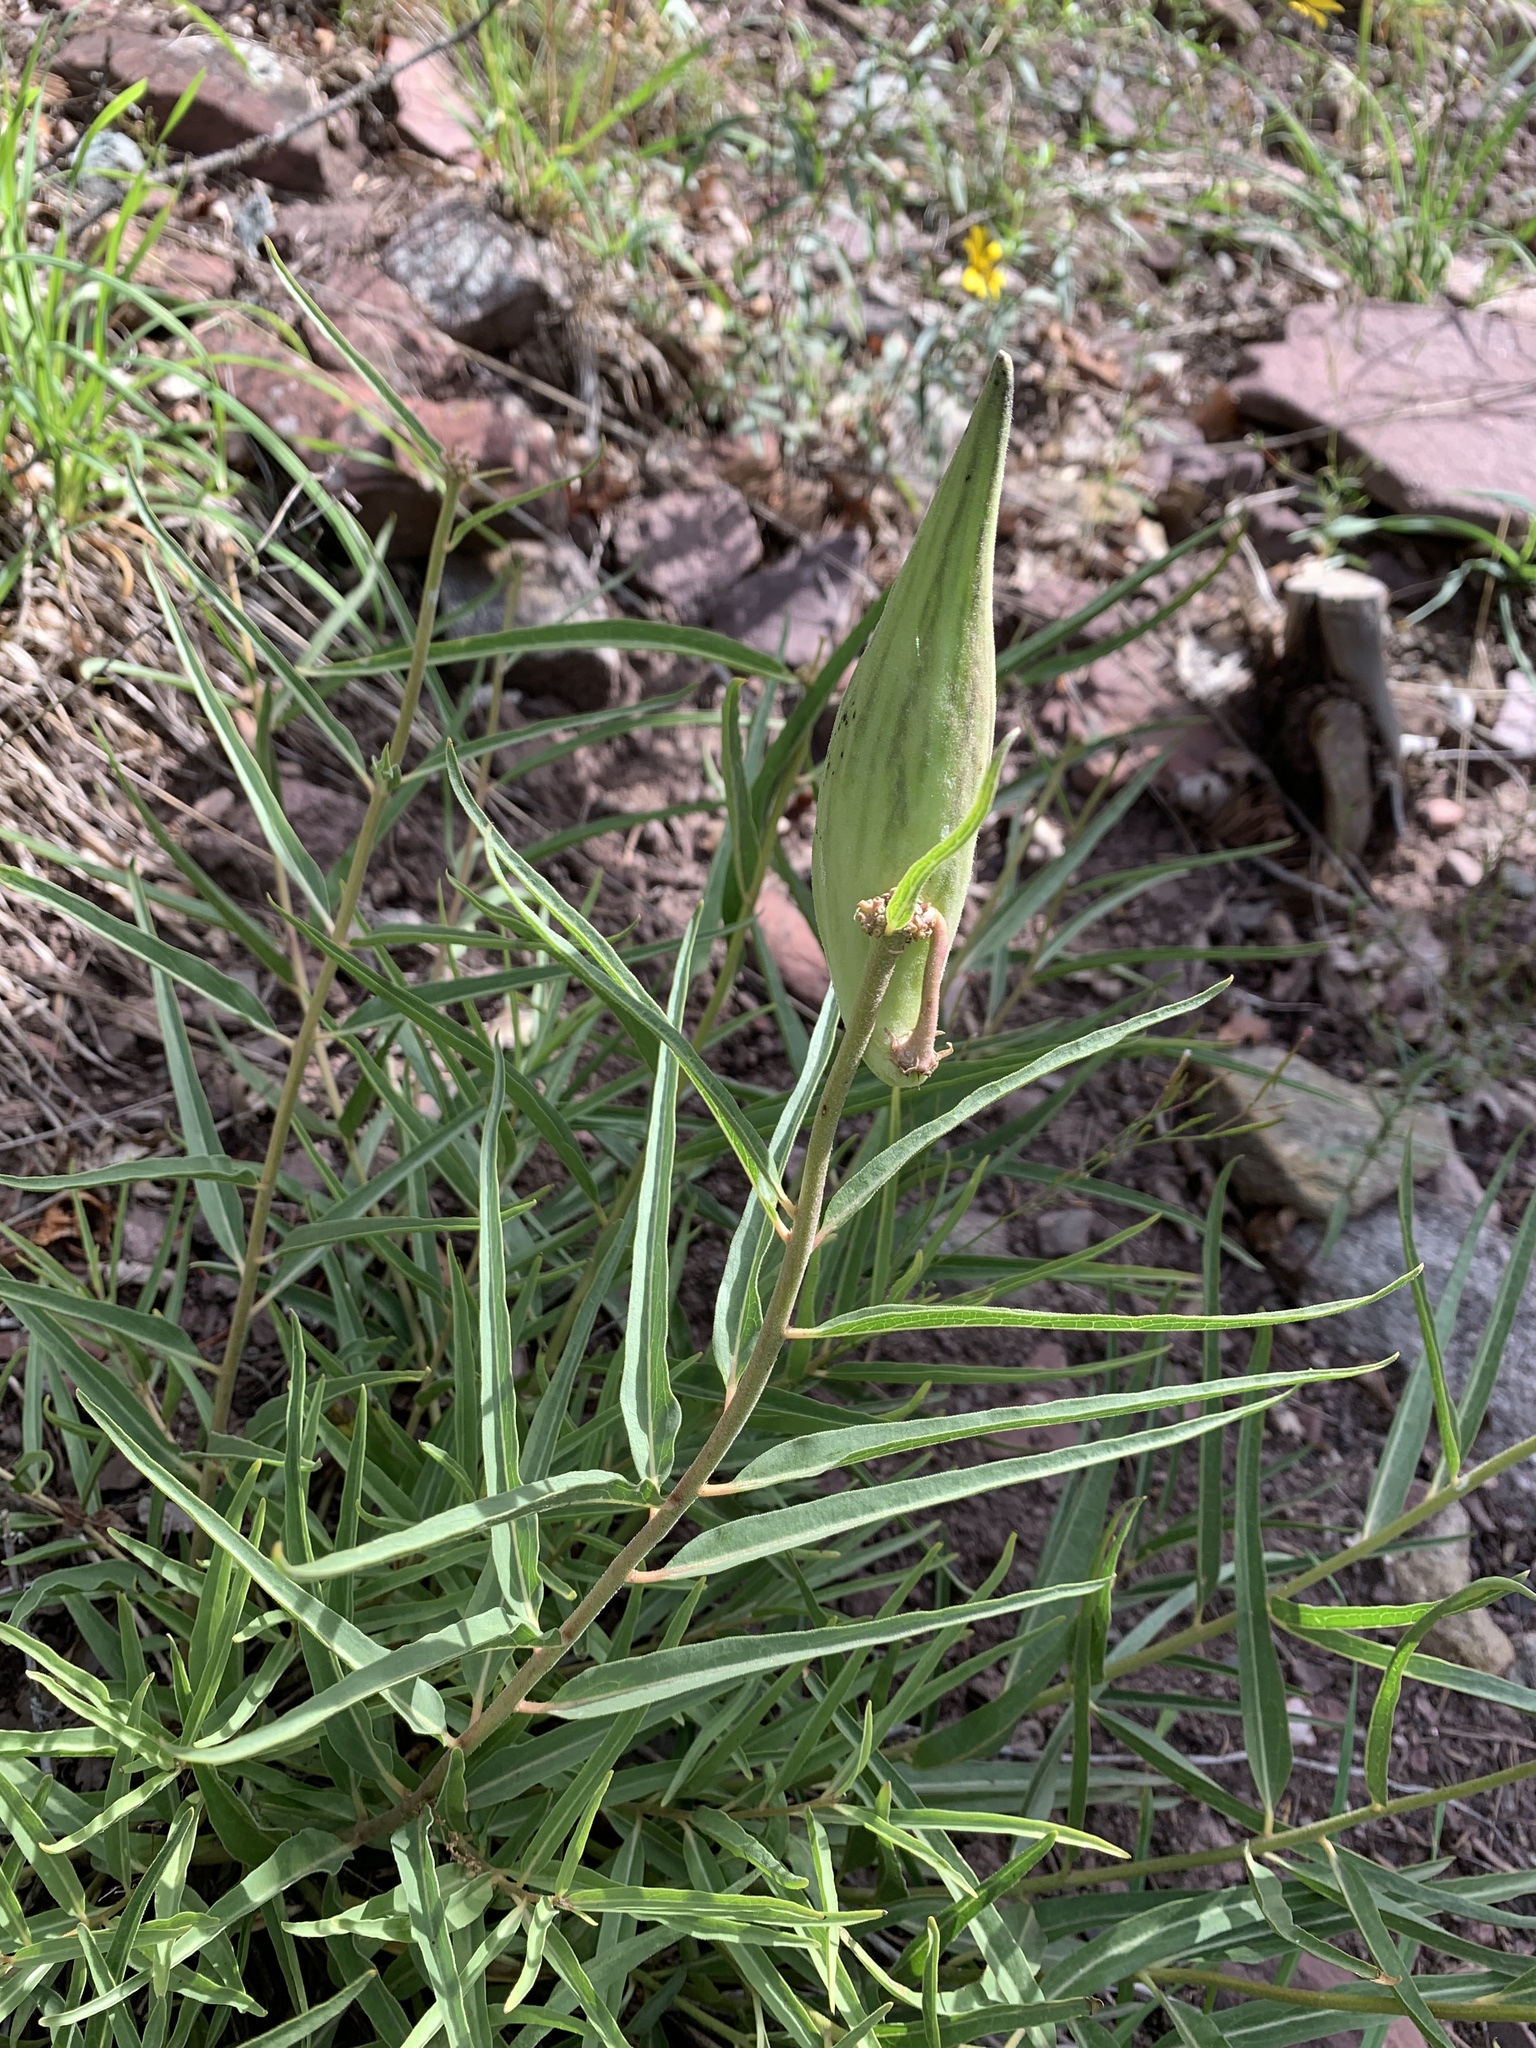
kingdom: Plantae
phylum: Tracheophyta
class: Magnoliopsida
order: Gentianales
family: Apocynaceae
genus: Asclepias
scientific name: Asclepias asperula
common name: Antelope horns
